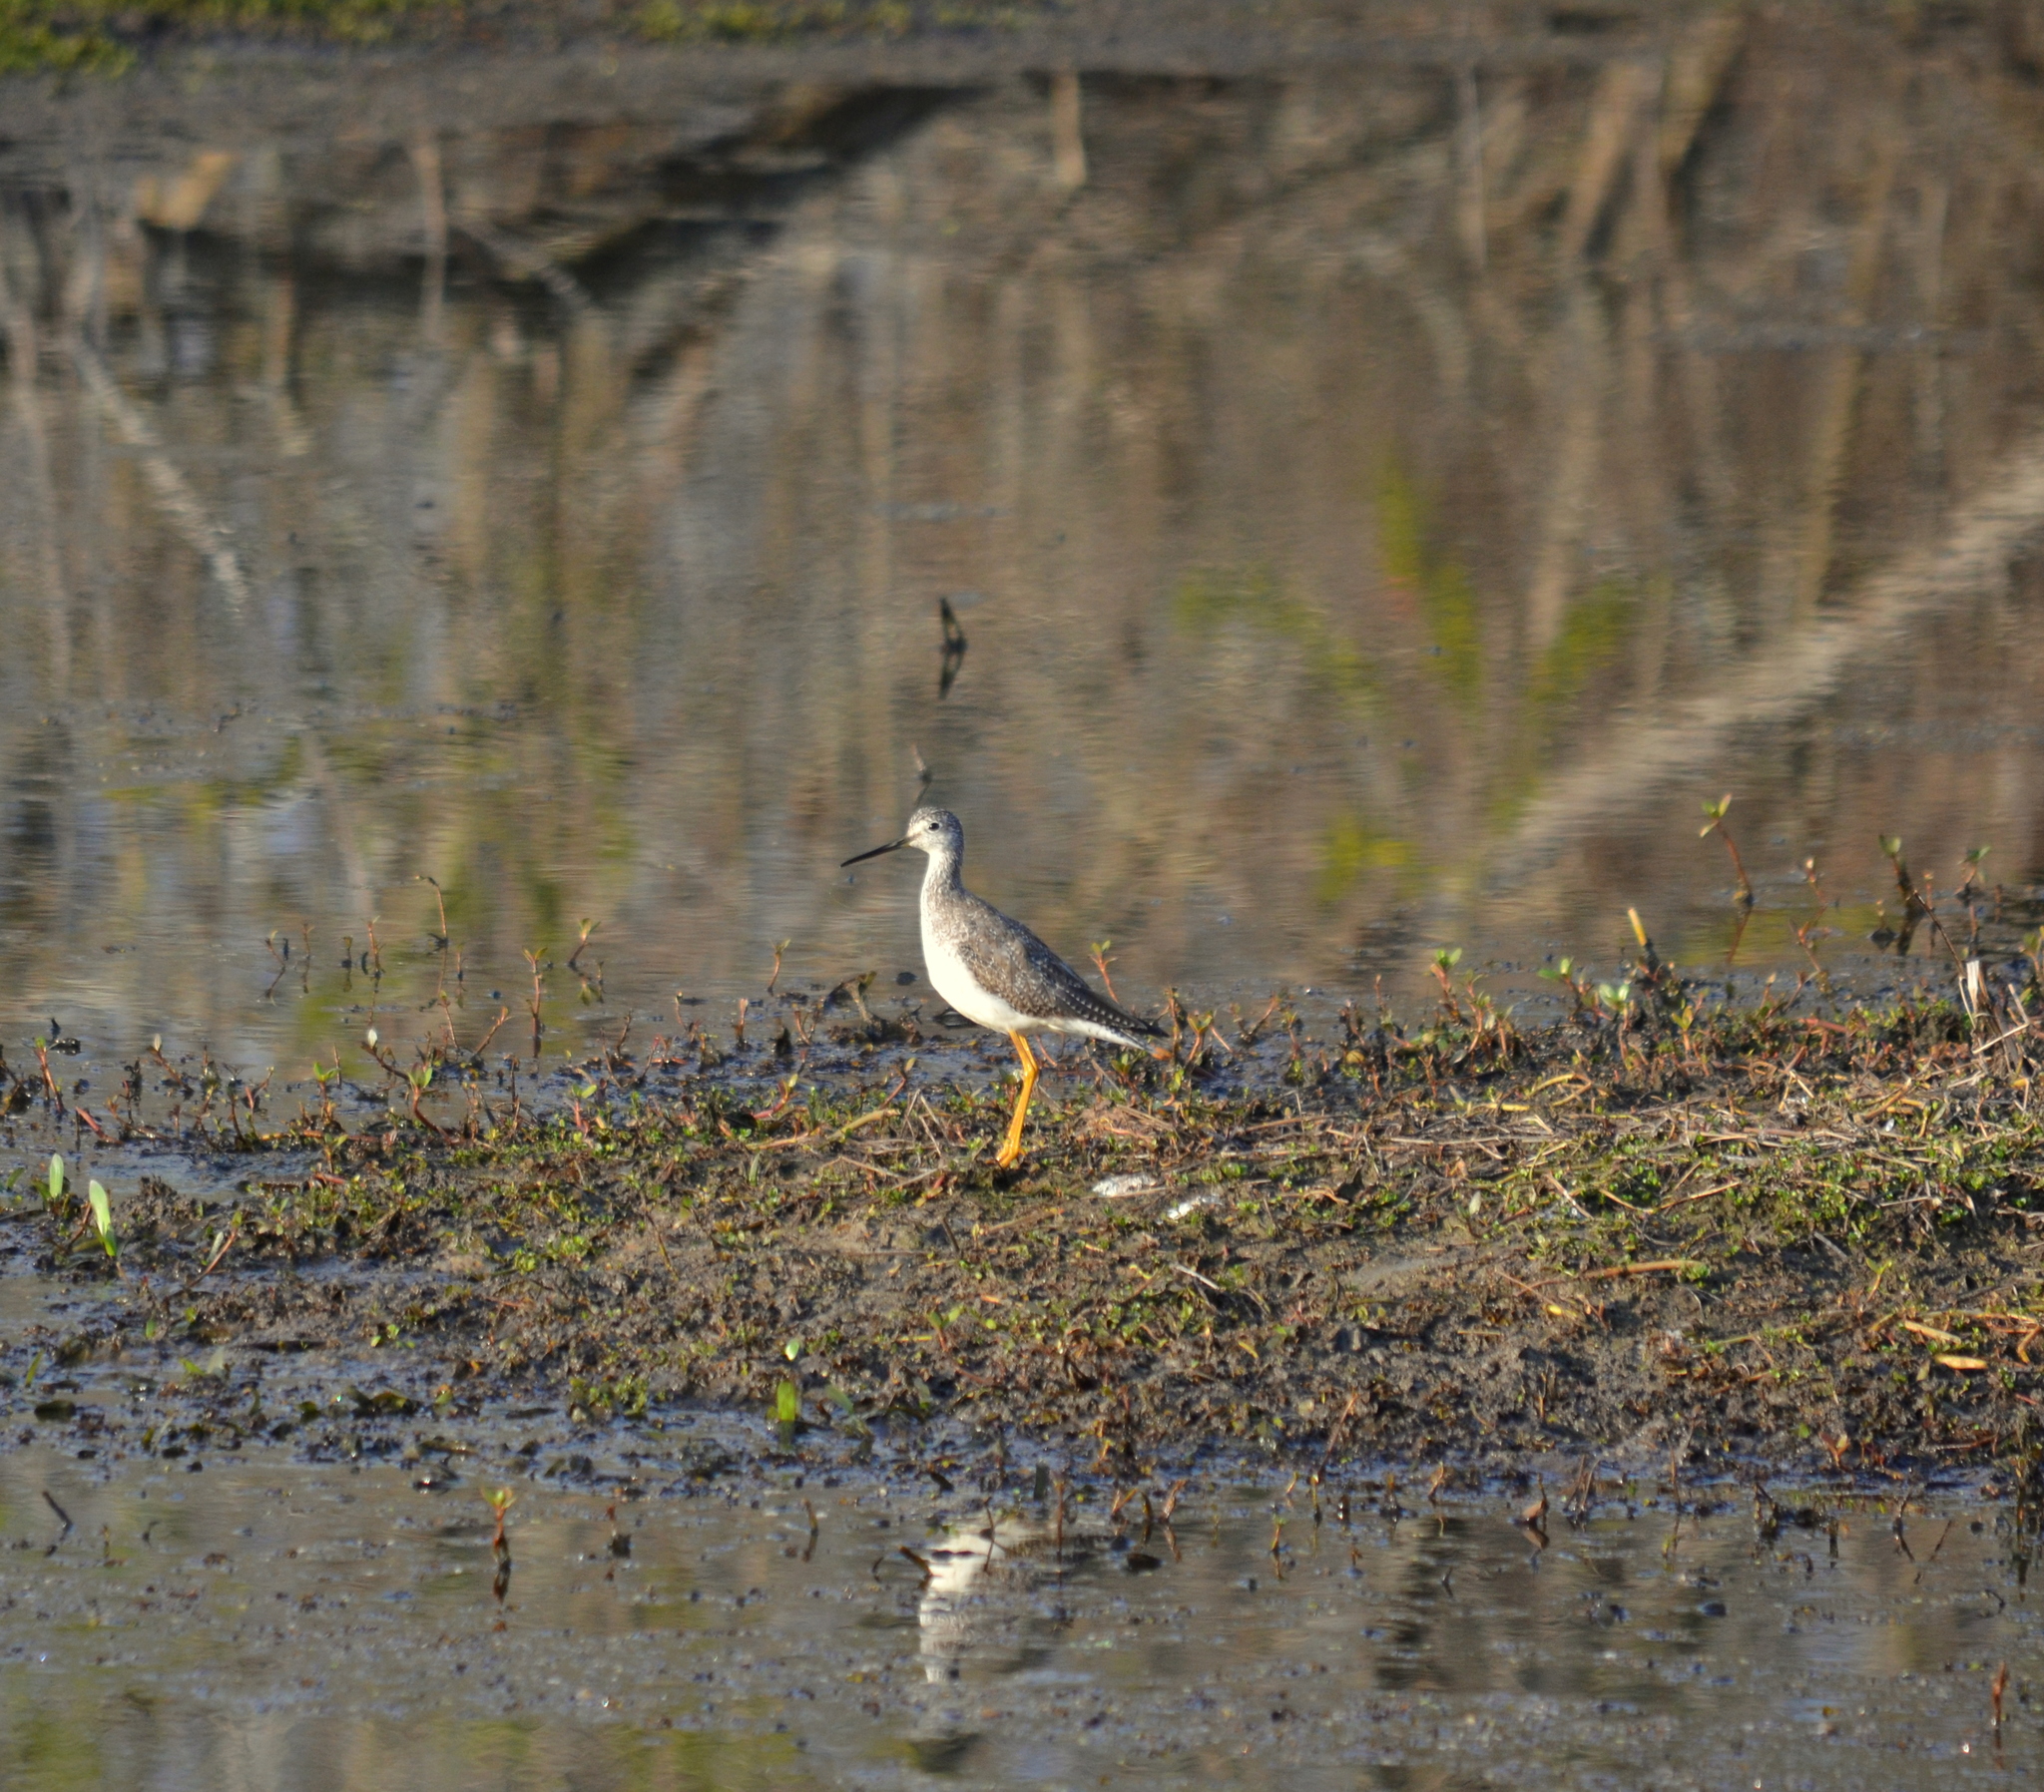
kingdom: Animalia
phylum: Chordata
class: Aves
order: Charadriiformes
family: Scolopacidae
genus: Tringa
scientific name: Tringa melanoleuca
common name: Greater yellowlegs
